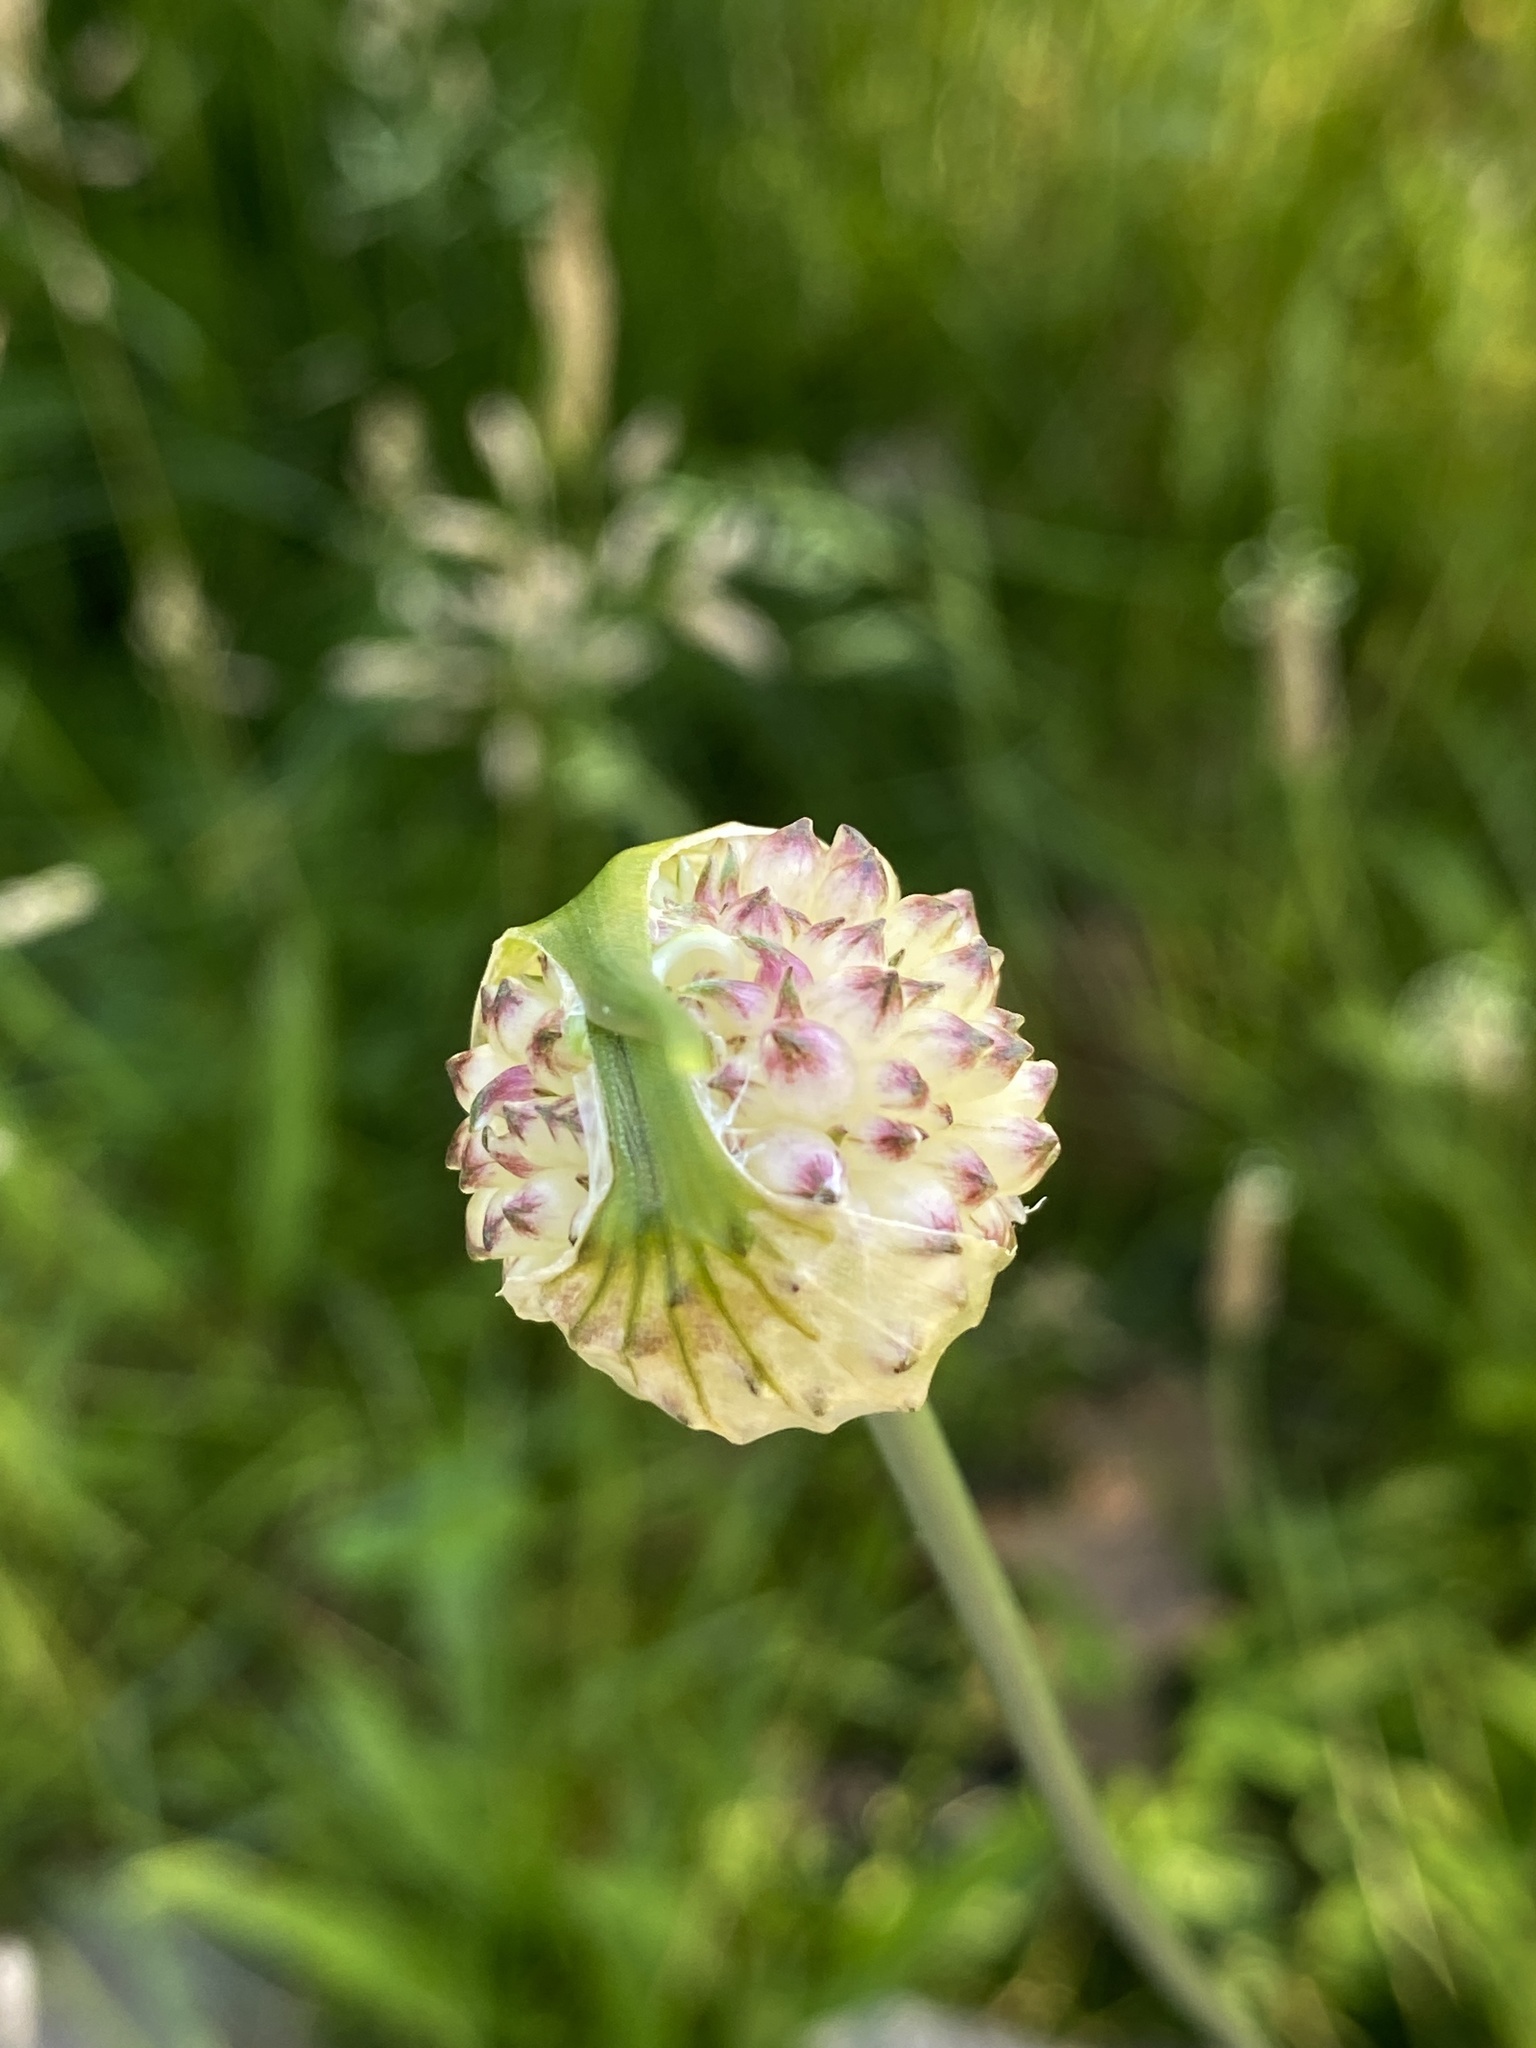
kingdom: Plantae
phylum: Tracheophyta
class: Liliopsida
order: Asparagales
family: Amaryllidaceae
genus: Allium
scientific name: Allium vineale
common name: Crow garlic
